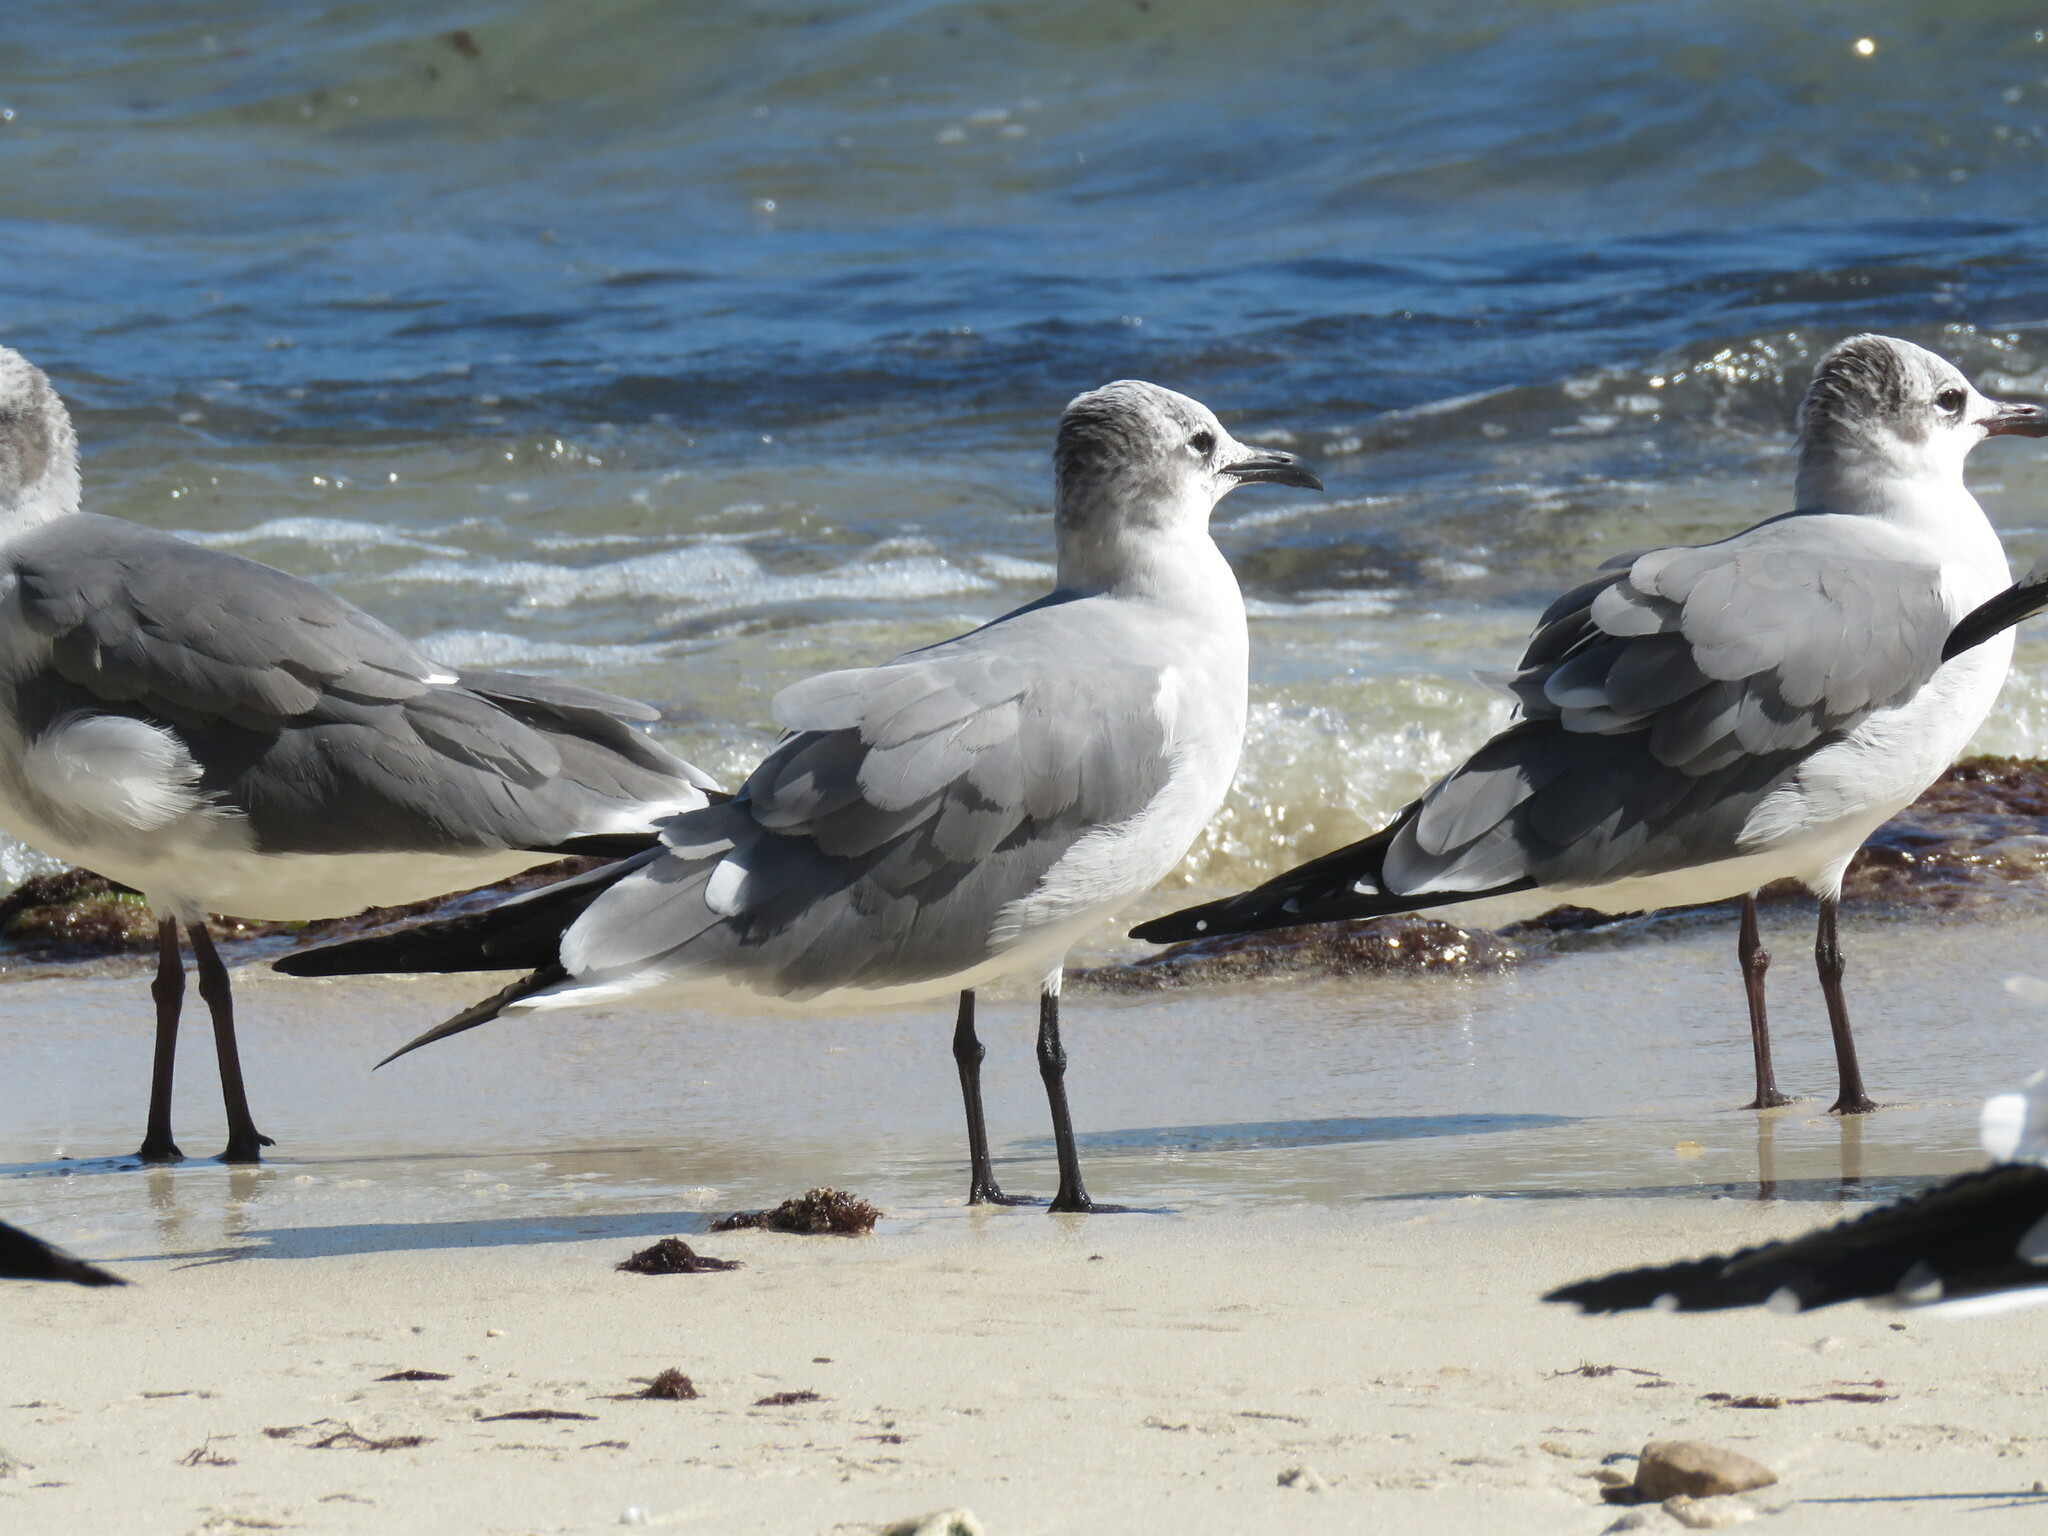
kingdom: Animalia
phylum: Chordata
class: Aves
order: Charadriiformes
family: Laridae
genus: Leucophaeus
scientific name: Leucophaeus atricilla
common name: Laughing gull
